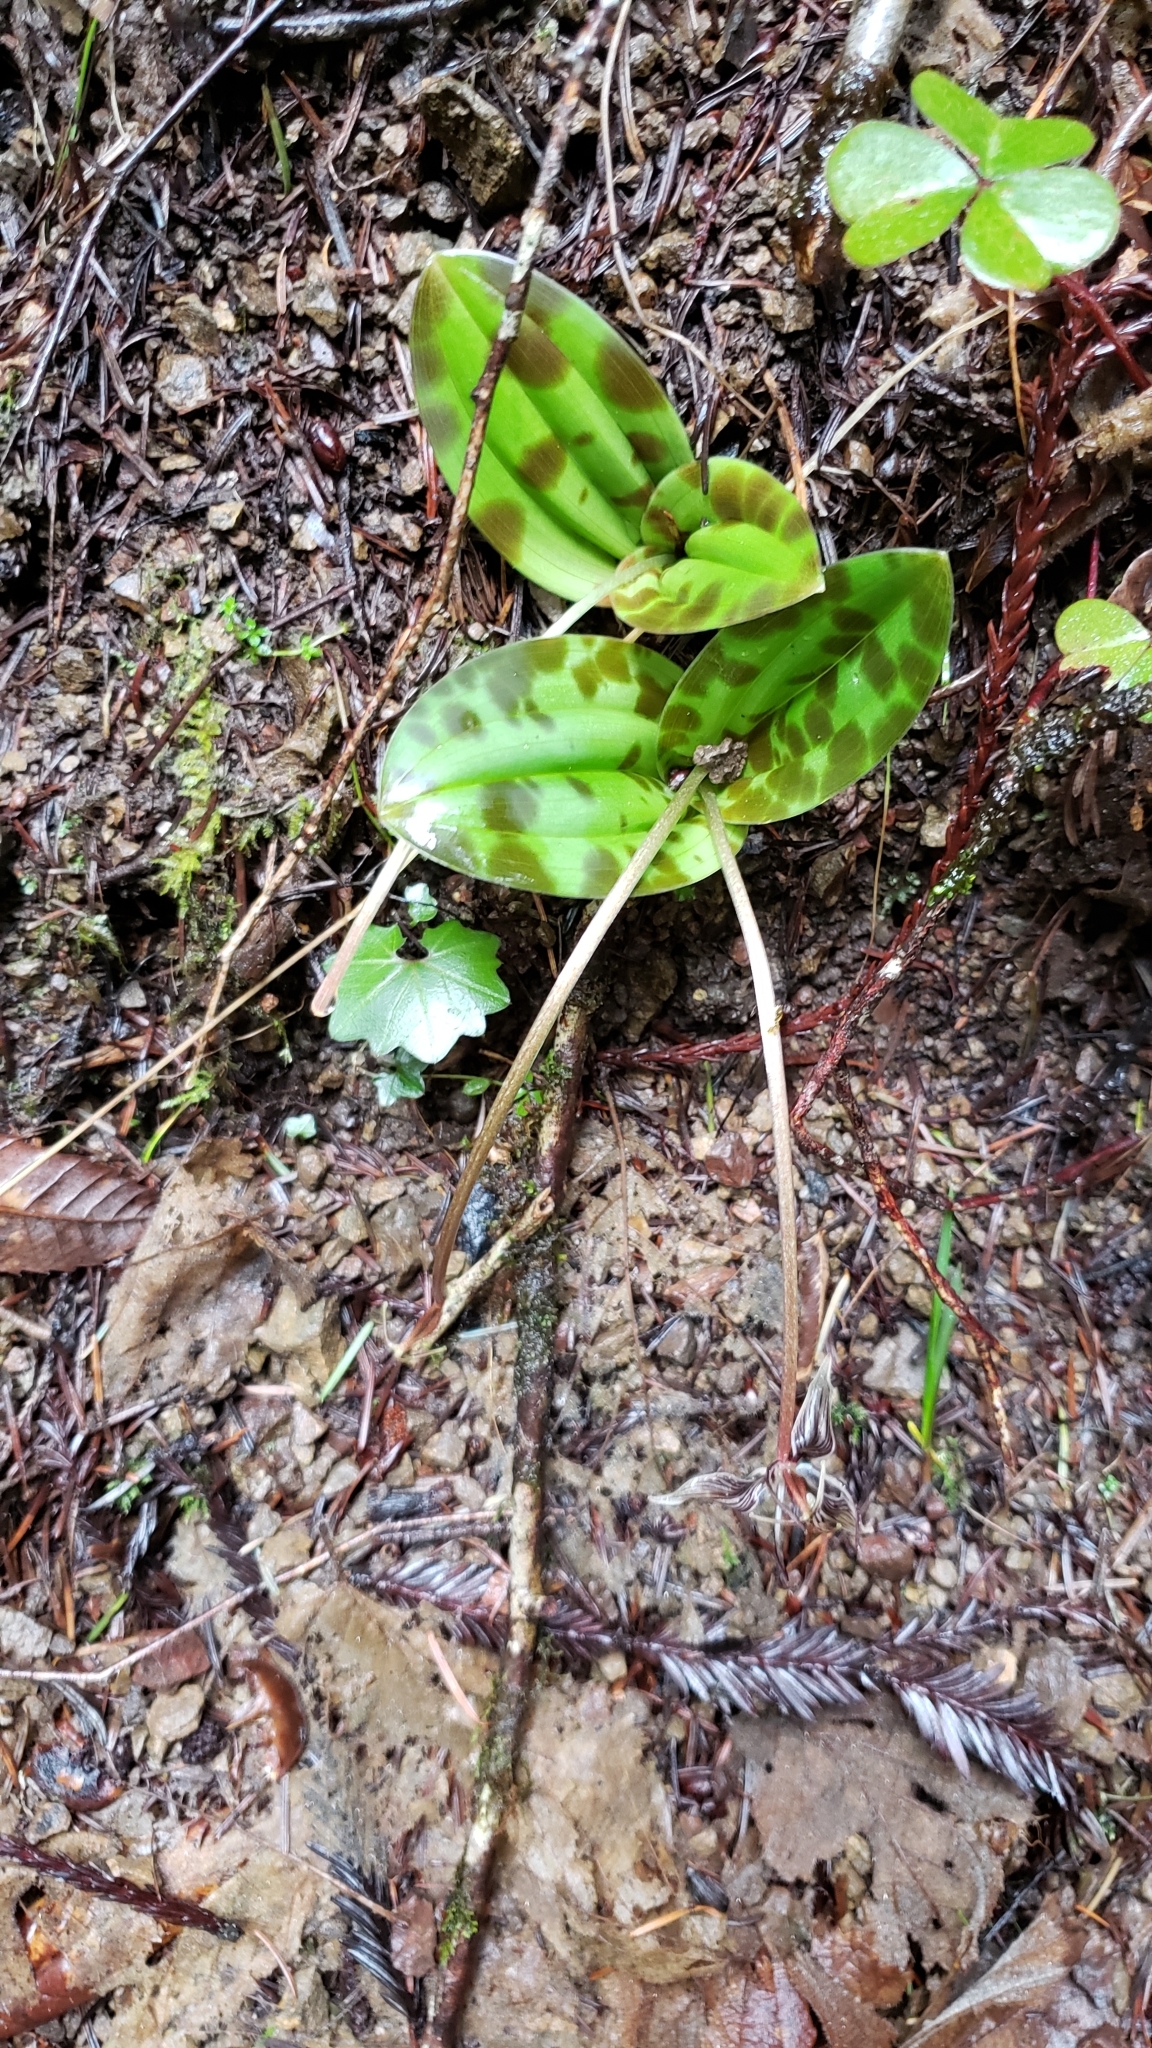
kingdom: Plantae
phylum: Tracheophyta
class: Liliopsida
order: Liliales
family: Liliaceae
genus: Scoliopus
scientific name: Scoliopus bigelovii
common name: Foetid adder's-tongue
